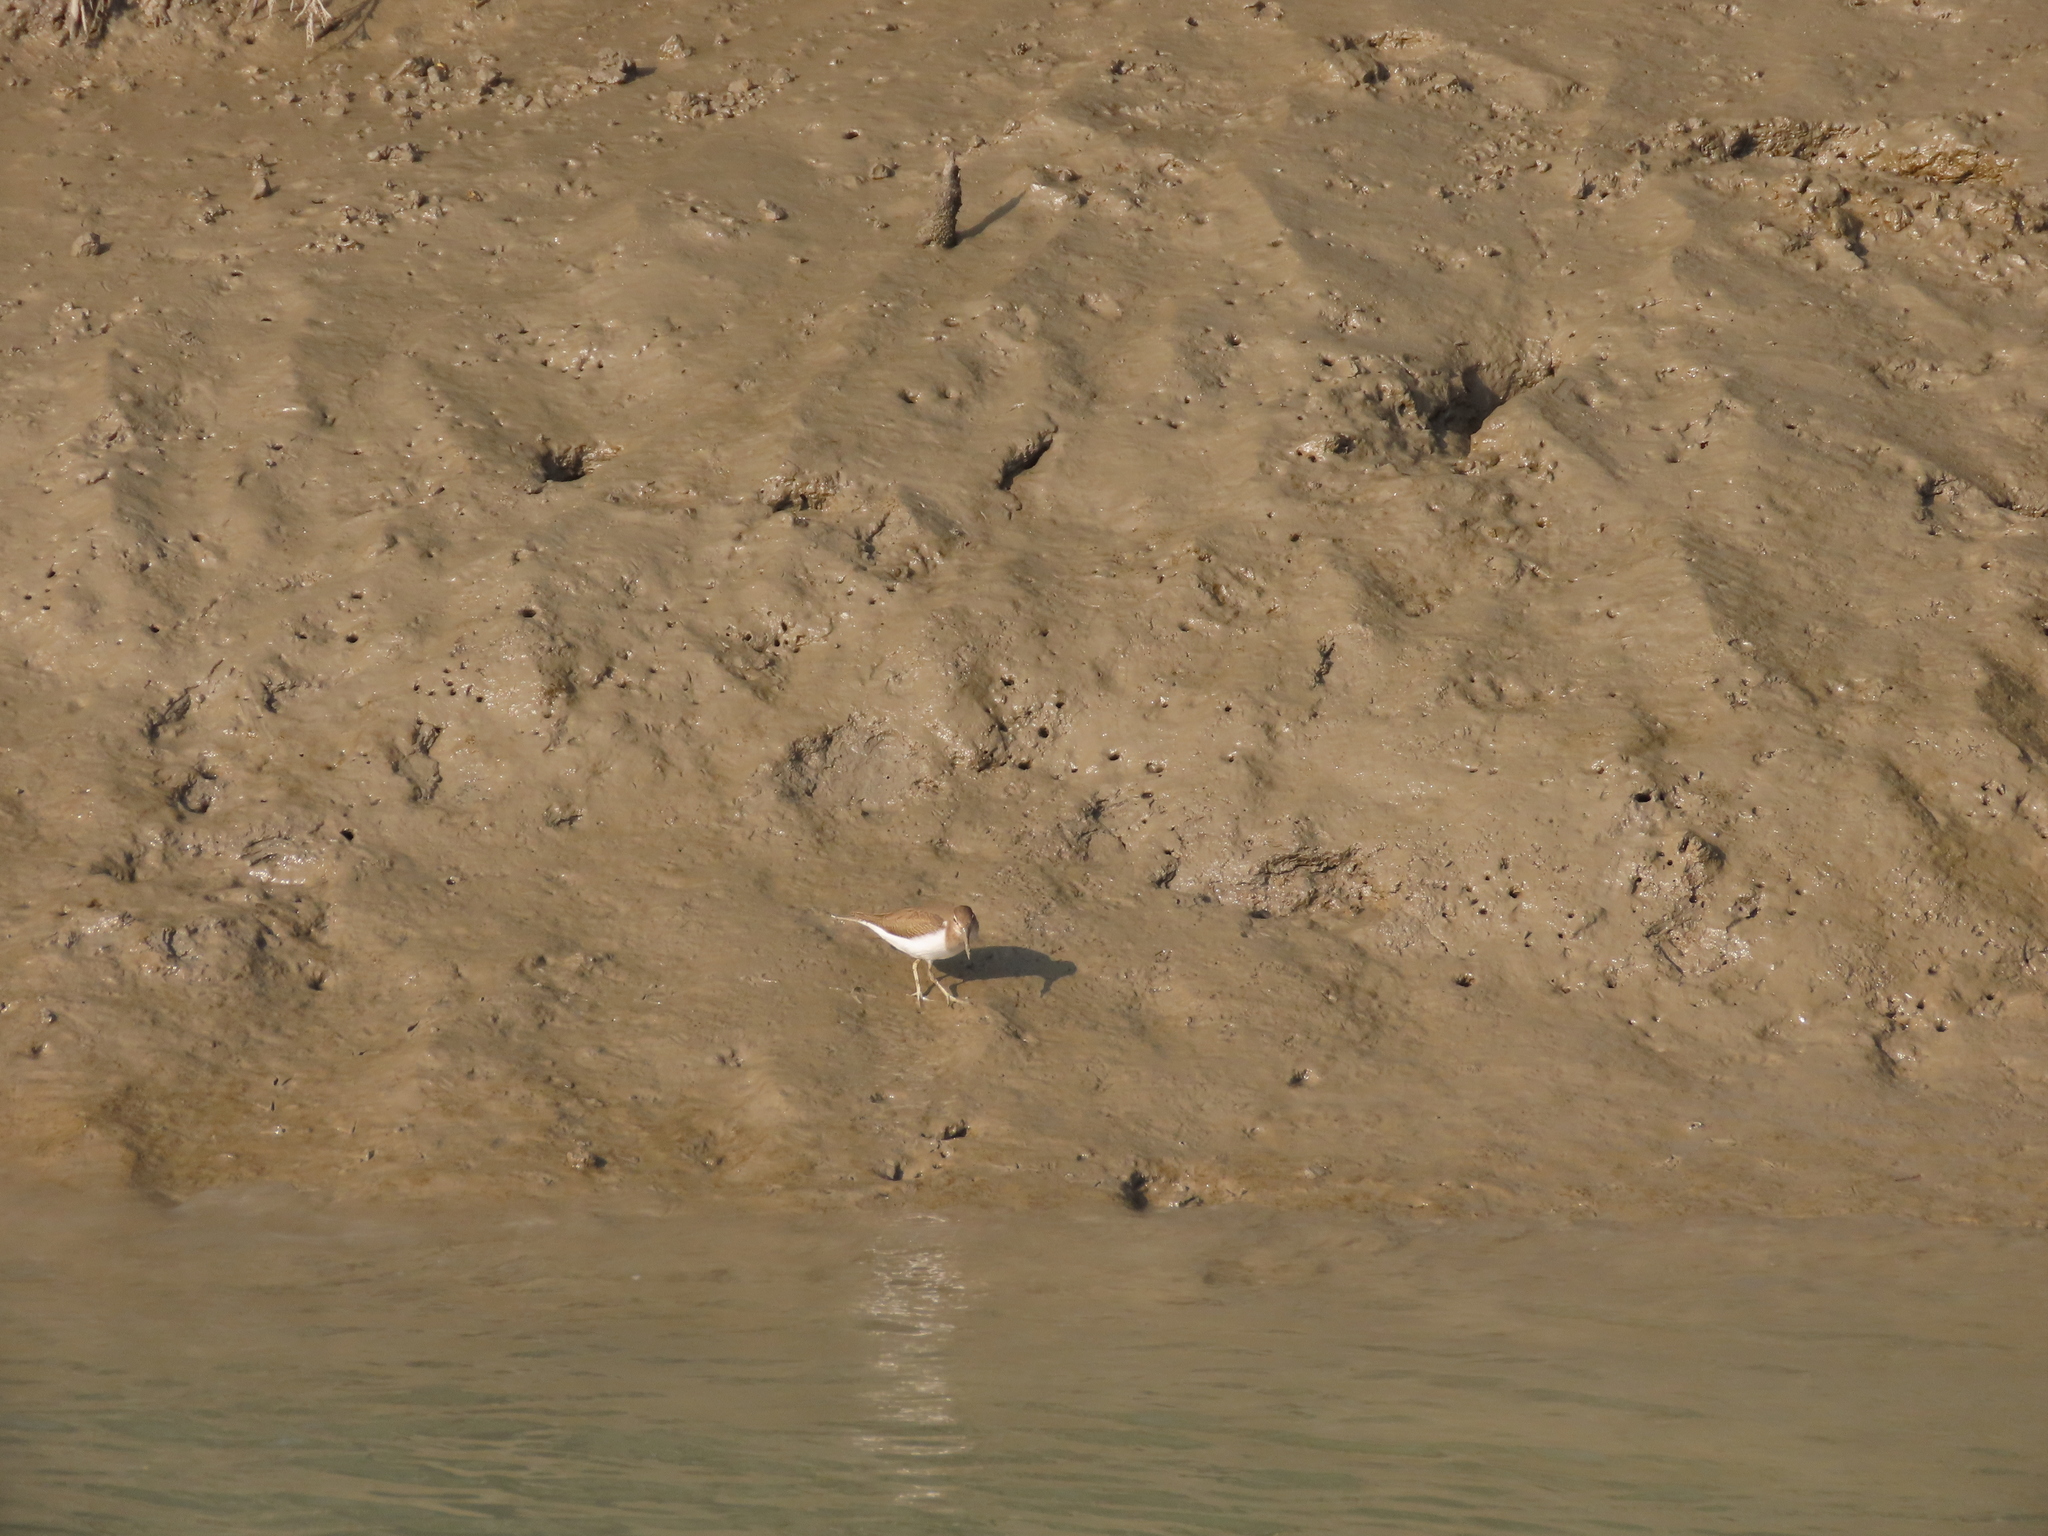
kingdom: Animalia
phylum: Chordata
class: Aves
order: Charadriiformes
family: Scolopacidae
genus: Actitis
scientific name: Actitis hypoleucos
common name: Common sandpiper
